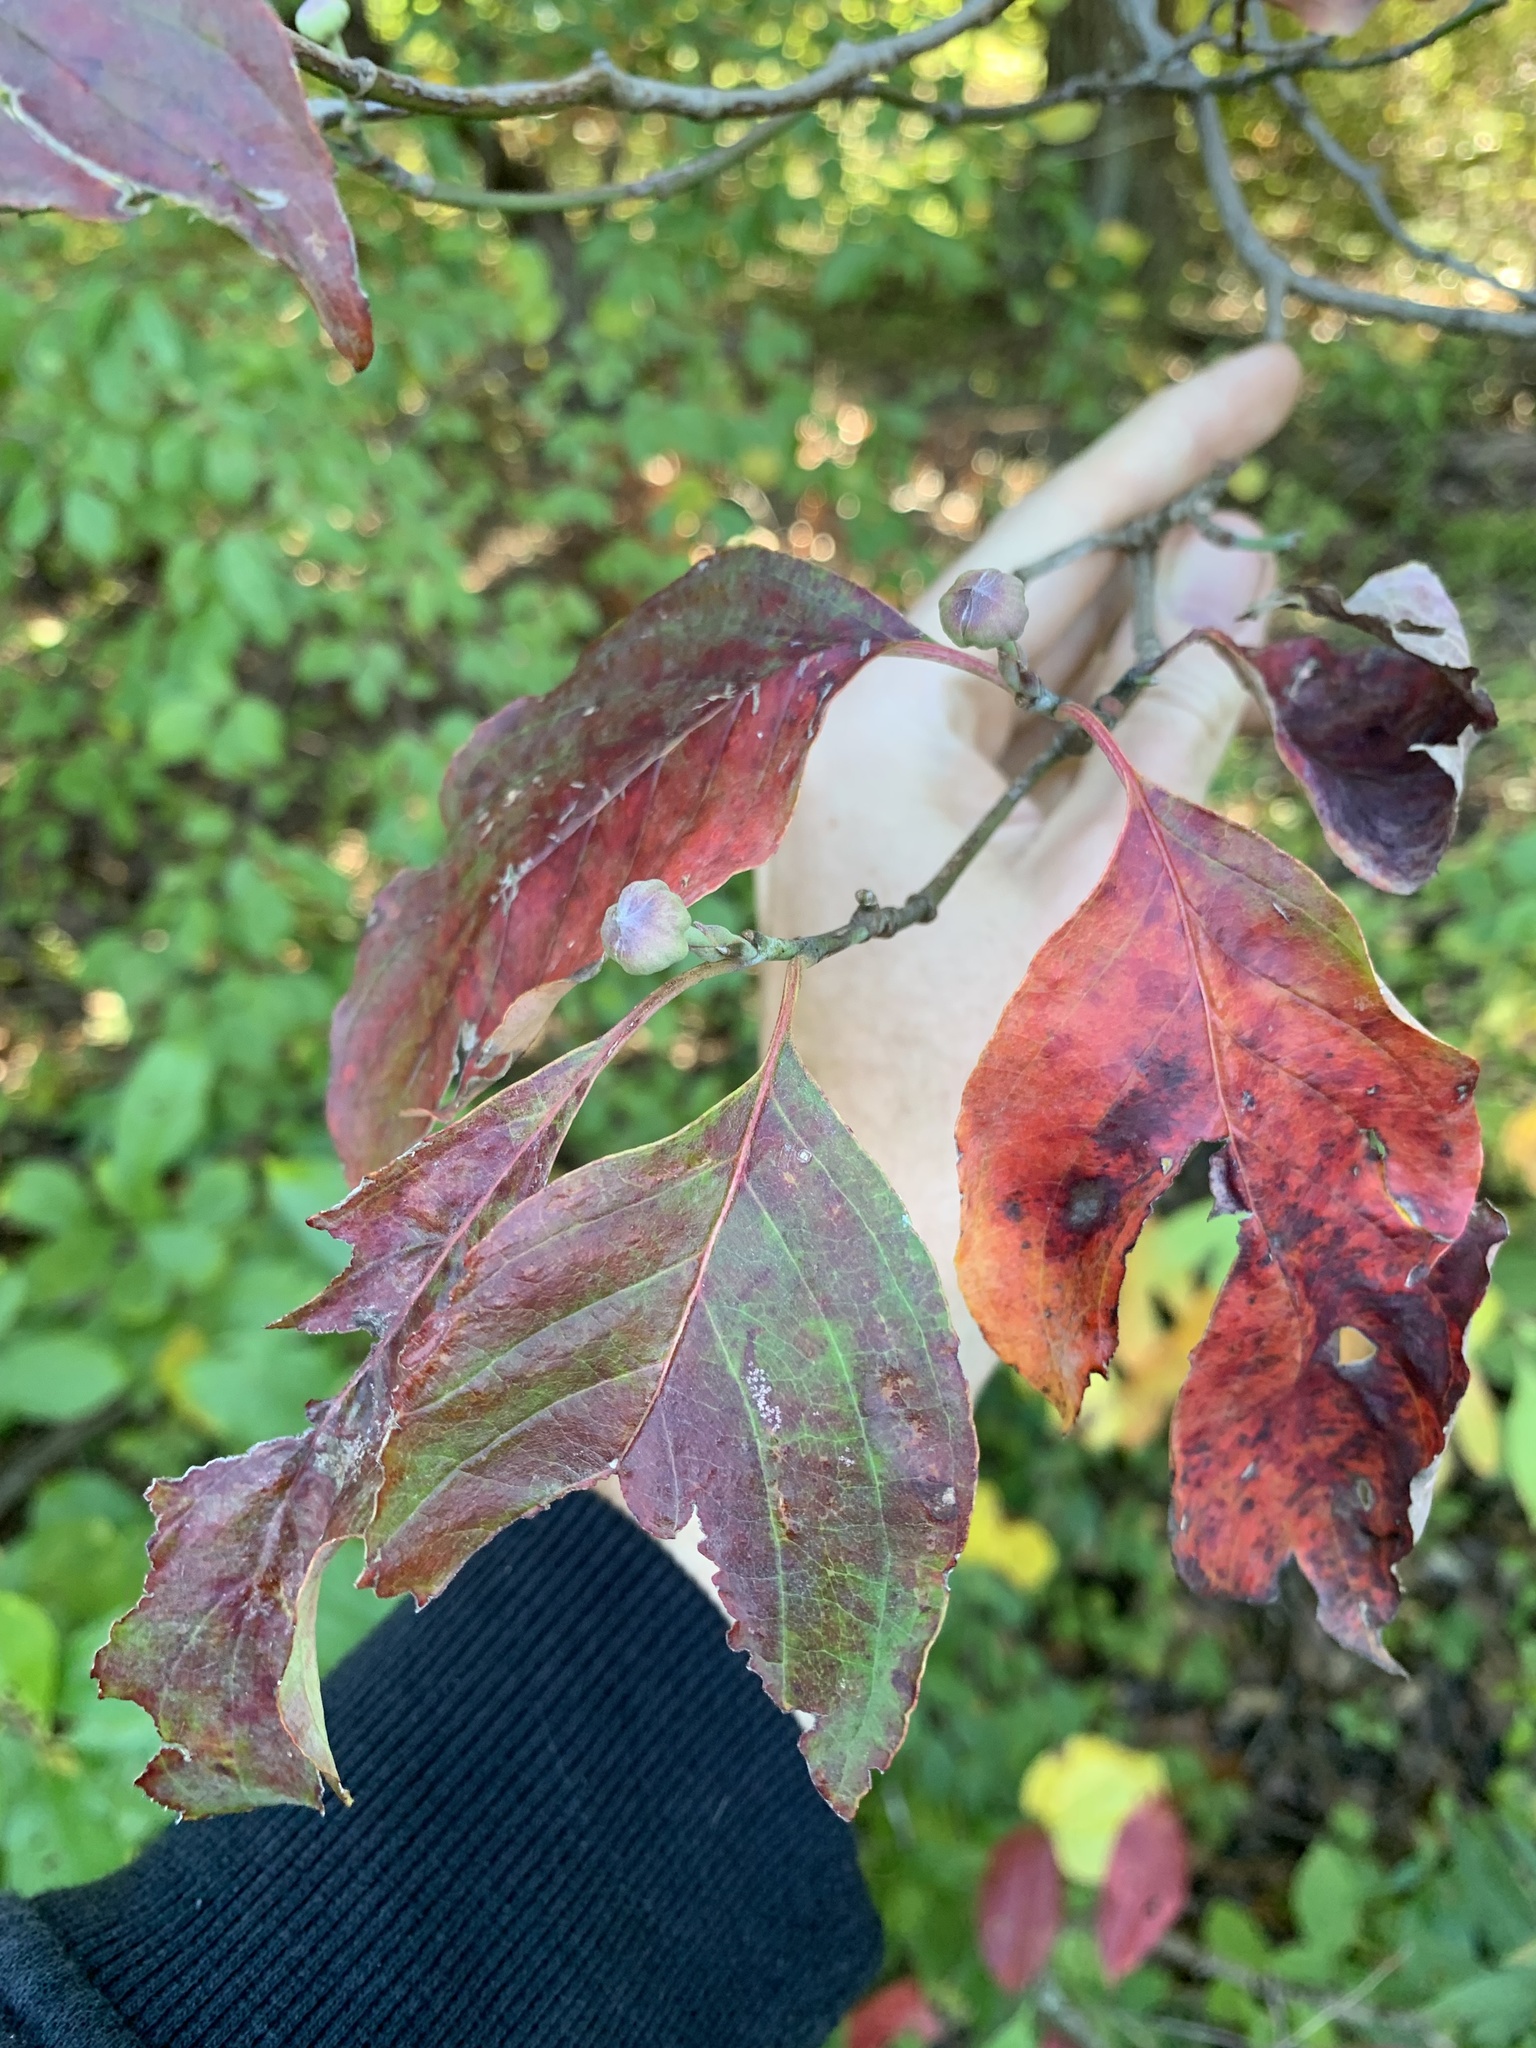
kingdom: Plantae
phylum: Tracheophyta
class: Magnoliopsida
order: Cornales
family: Cornaceae
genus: Cornus
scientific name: Cornus florida
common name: Flowering dogwood
